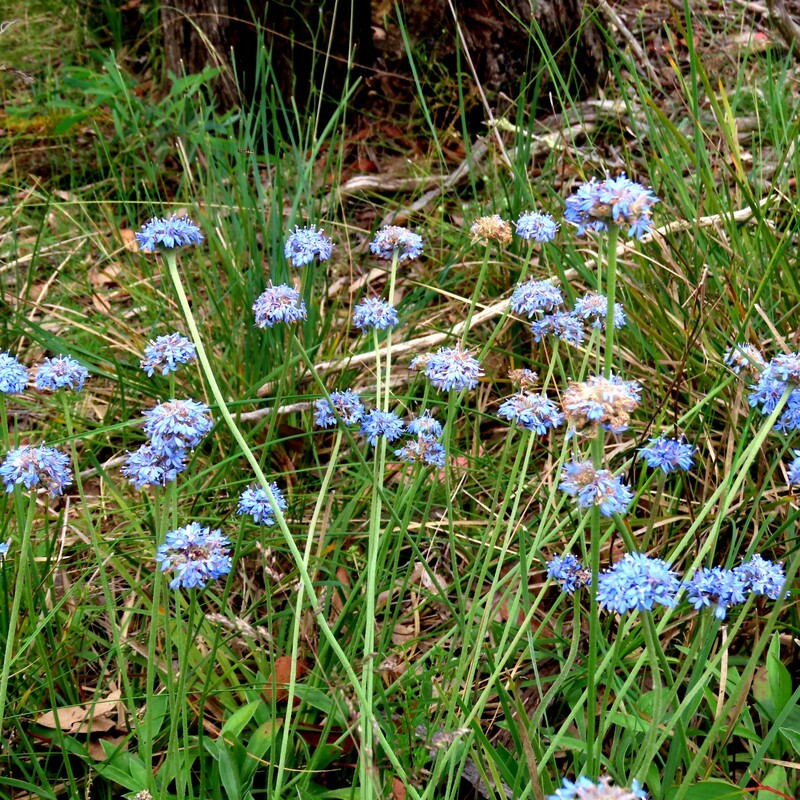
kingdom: Plantae
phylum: Tracheophyta
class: Magnoliopsida
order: Asterales
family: Goodeniaceae
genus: Brunonia
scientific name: Brunonia australis
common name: Blue pincushion
